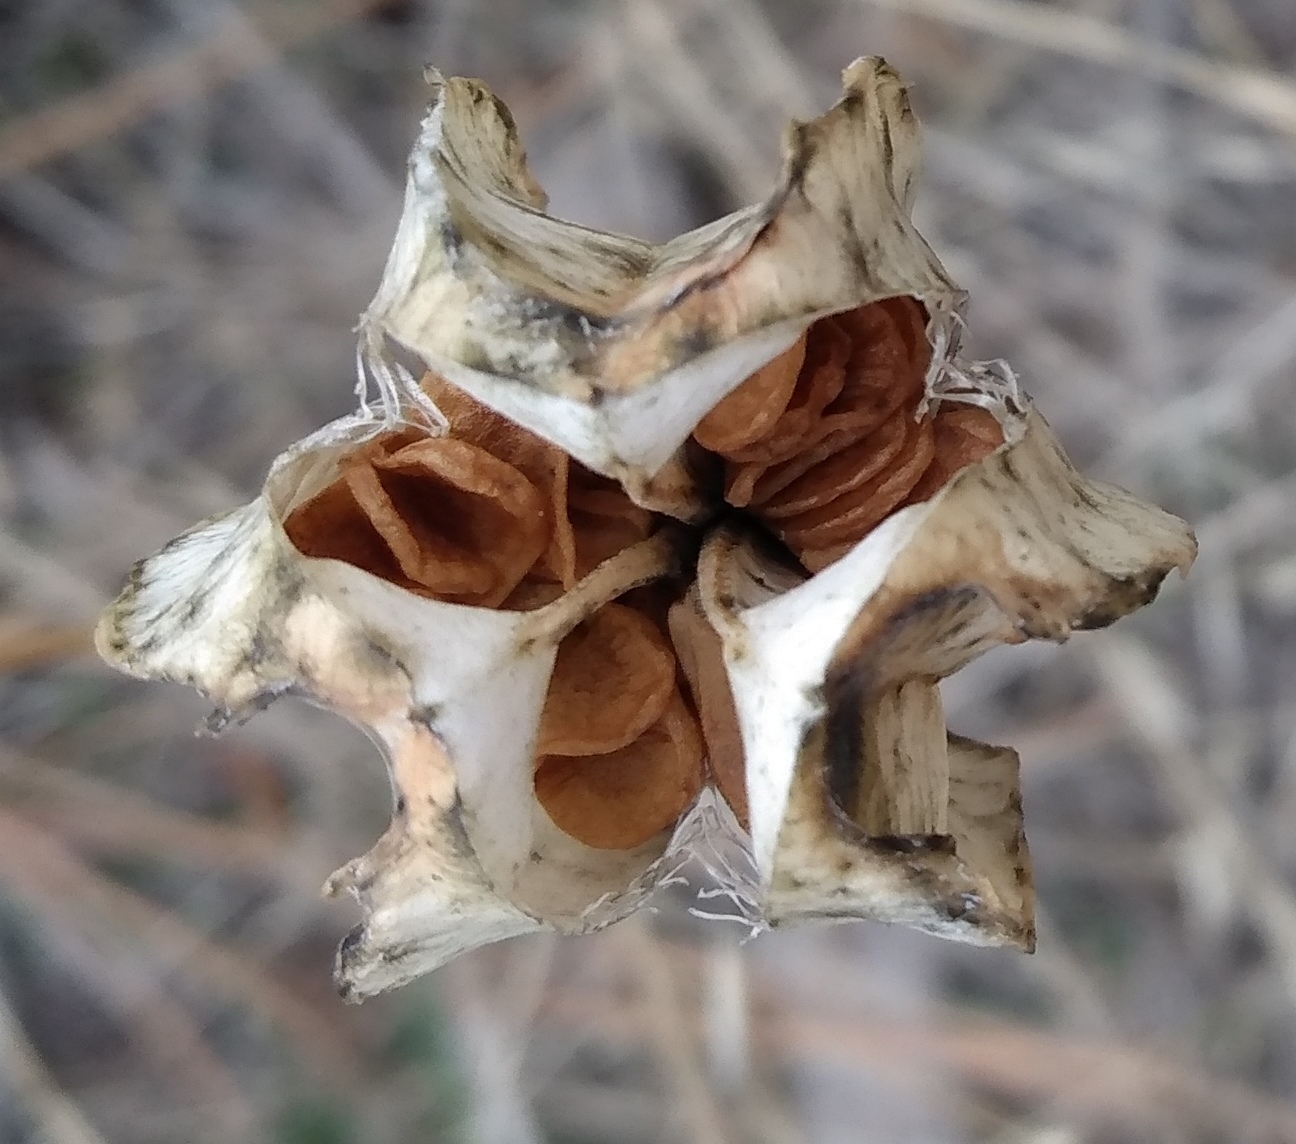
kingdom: Plantae
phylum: Tracheophyta
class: Liliopsida
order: Liliales
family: Liliaceae
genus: Fritillaria
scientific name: Fritillaria affinis
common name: Ojai fritillary
